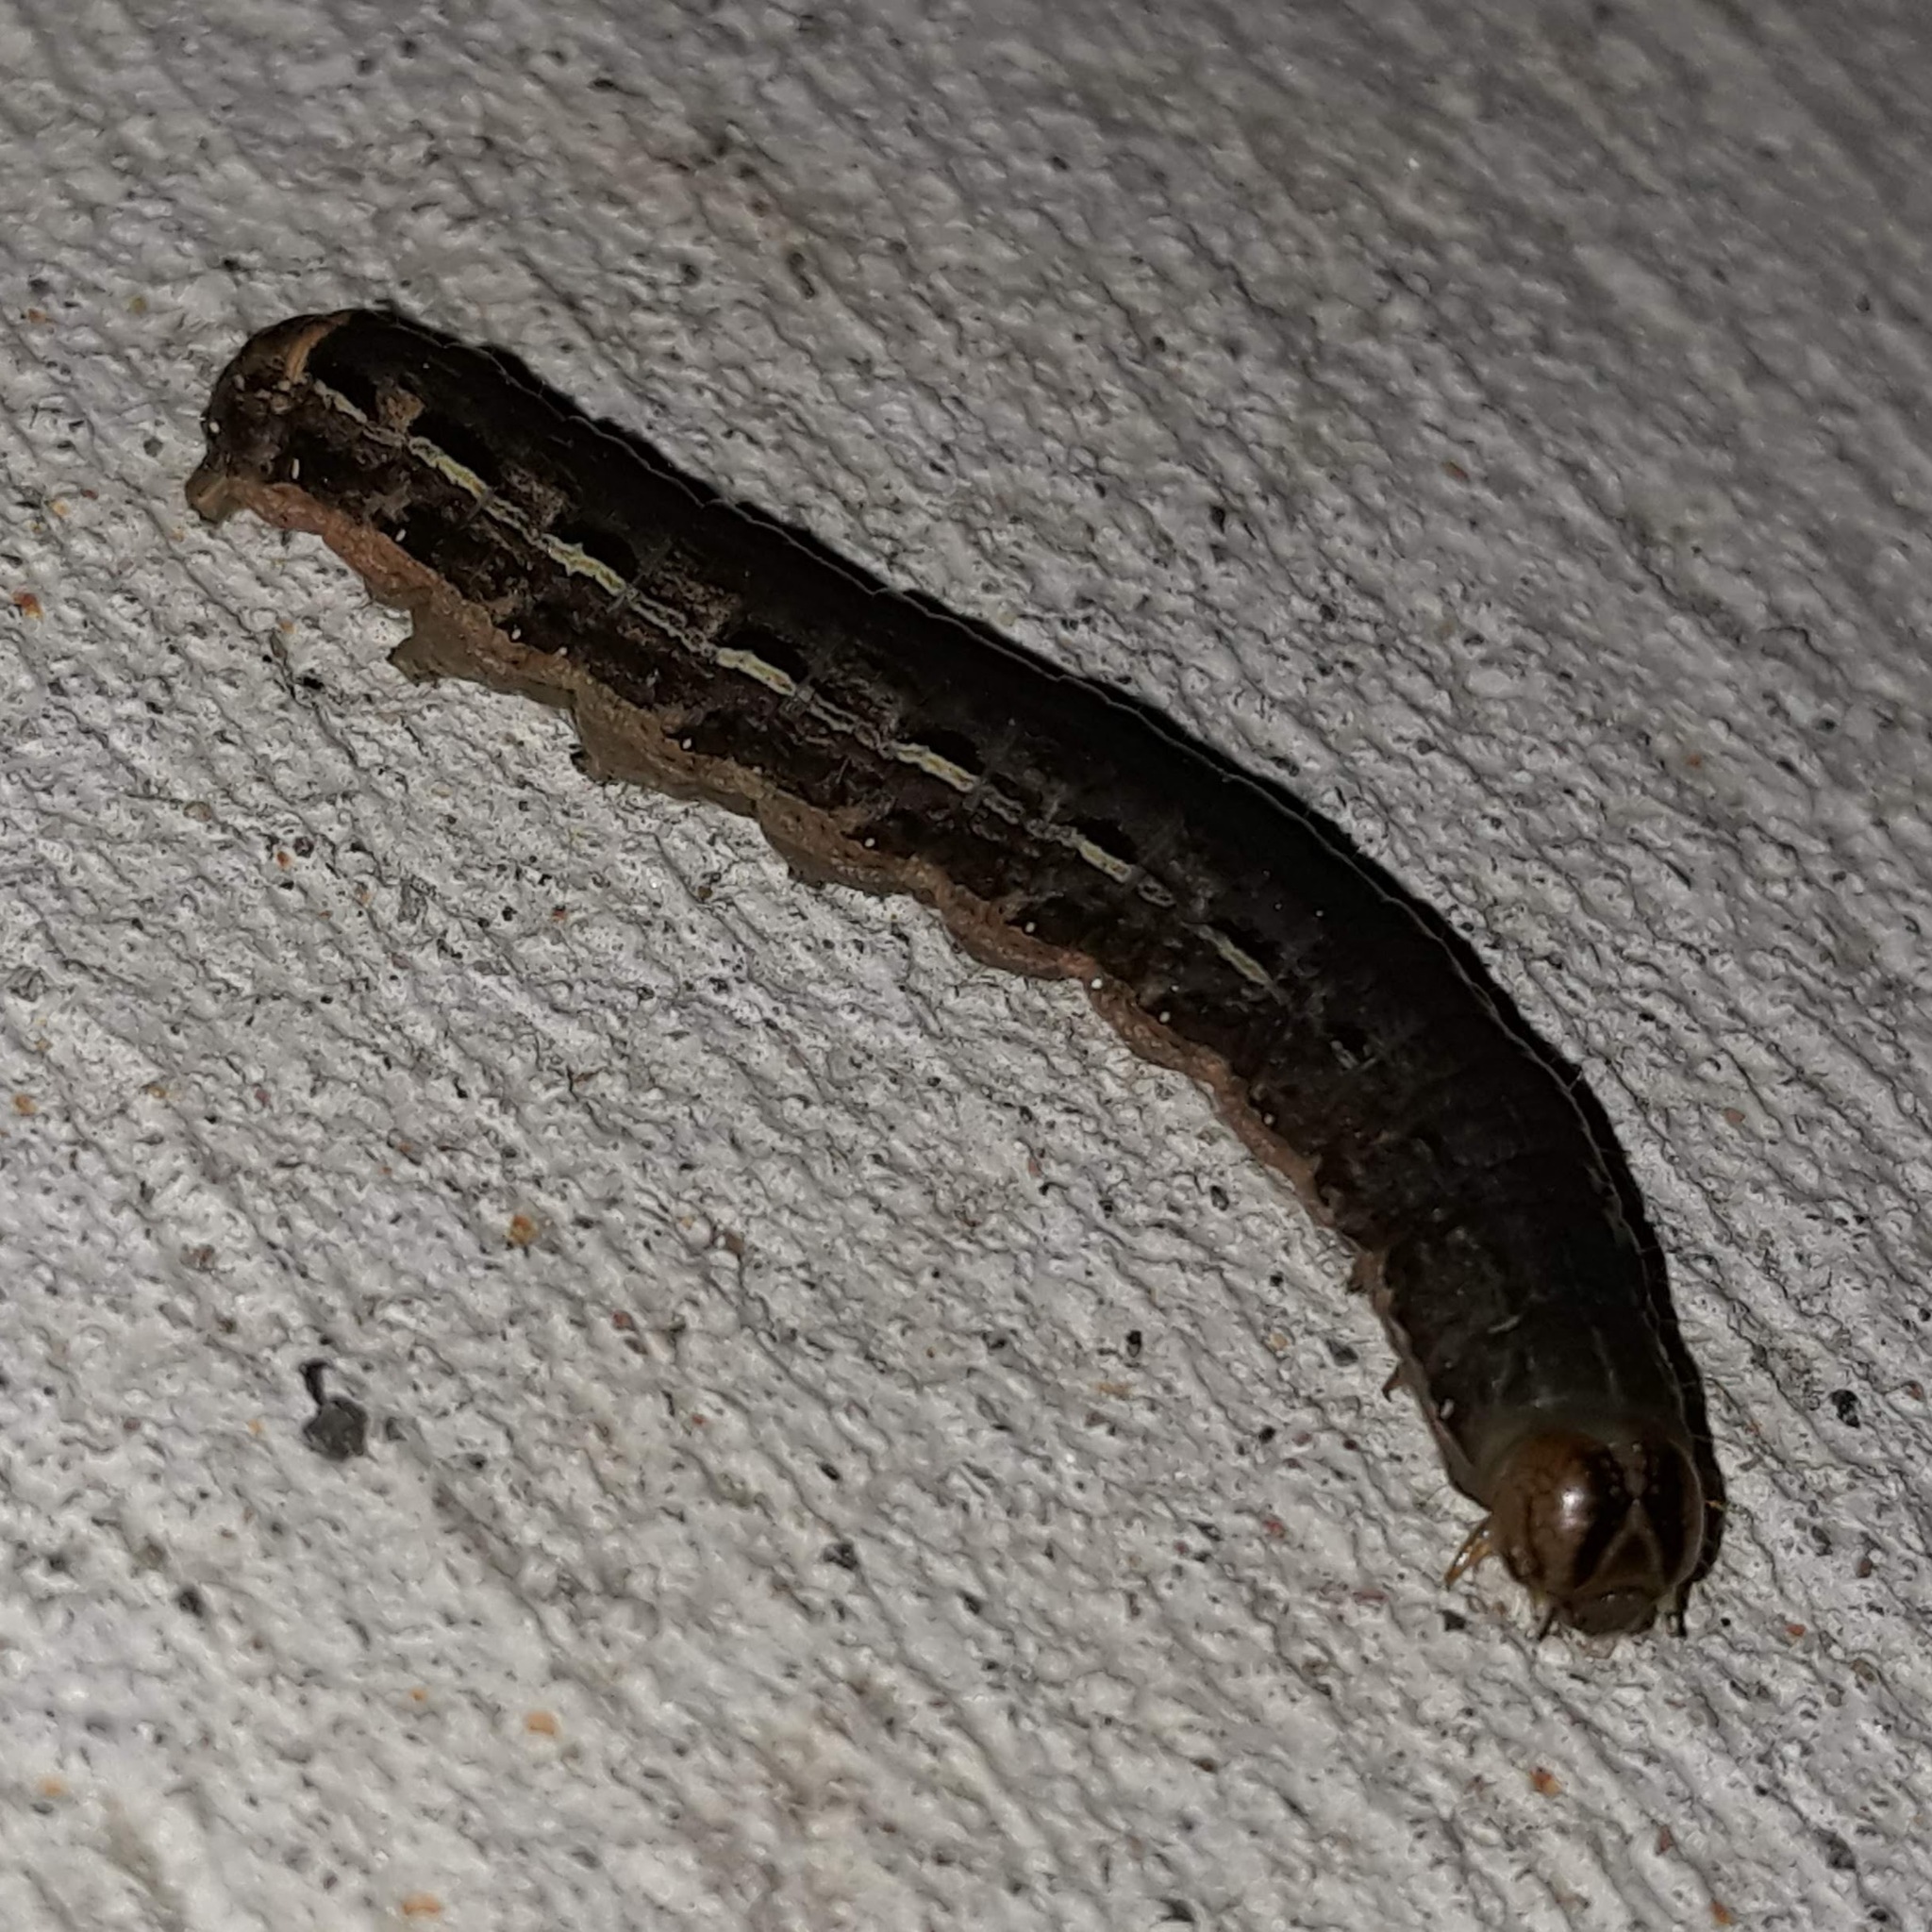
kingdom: Animalia
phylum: Arthropoda
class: Insecta
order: Lepidoptera
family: Noctuidae
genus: Noctua
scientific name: Noctua pronuba
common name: Large yellow underwing
